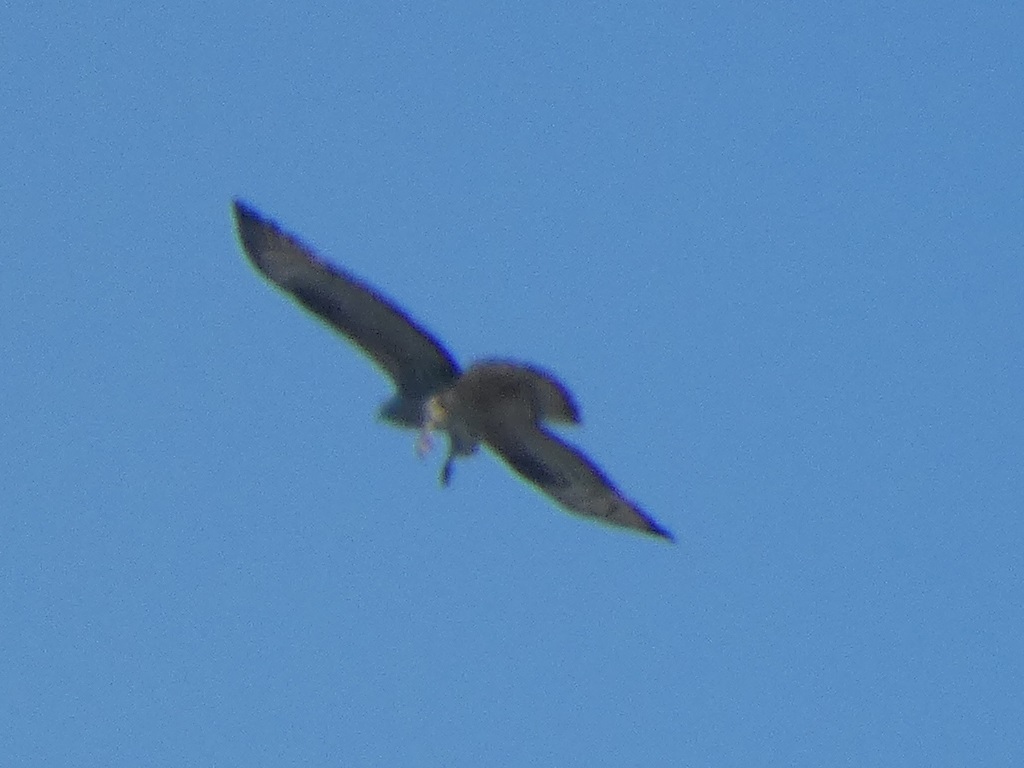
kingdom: Animalia
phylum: Chordata
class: Aves
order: Accipitriformes
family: Accipitridae
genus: Pernis
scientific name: Pernis apivorus
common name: European honey buzzard
